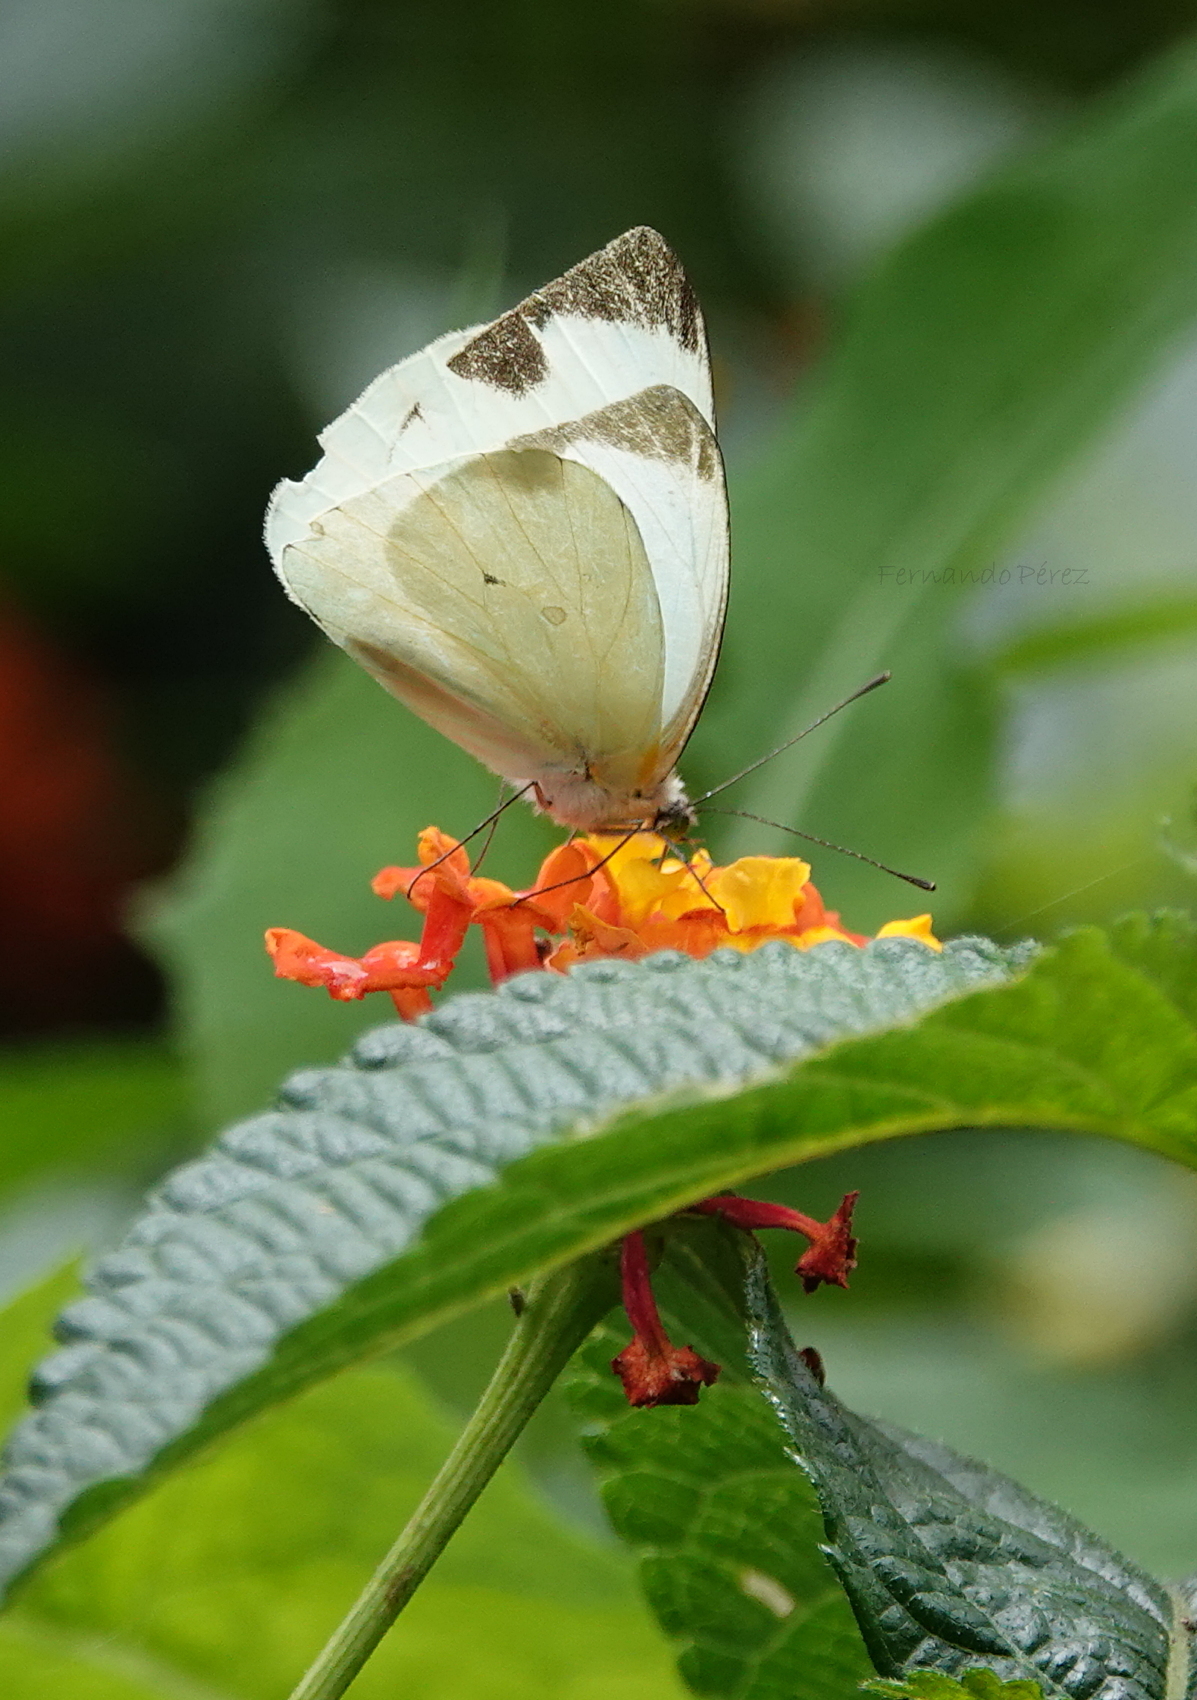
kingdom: Animalia
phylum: Arthropoda
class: Insecta
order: Lepidoptera
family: Pieridae
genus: Leptophobia
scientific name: Leptophobia aripa
